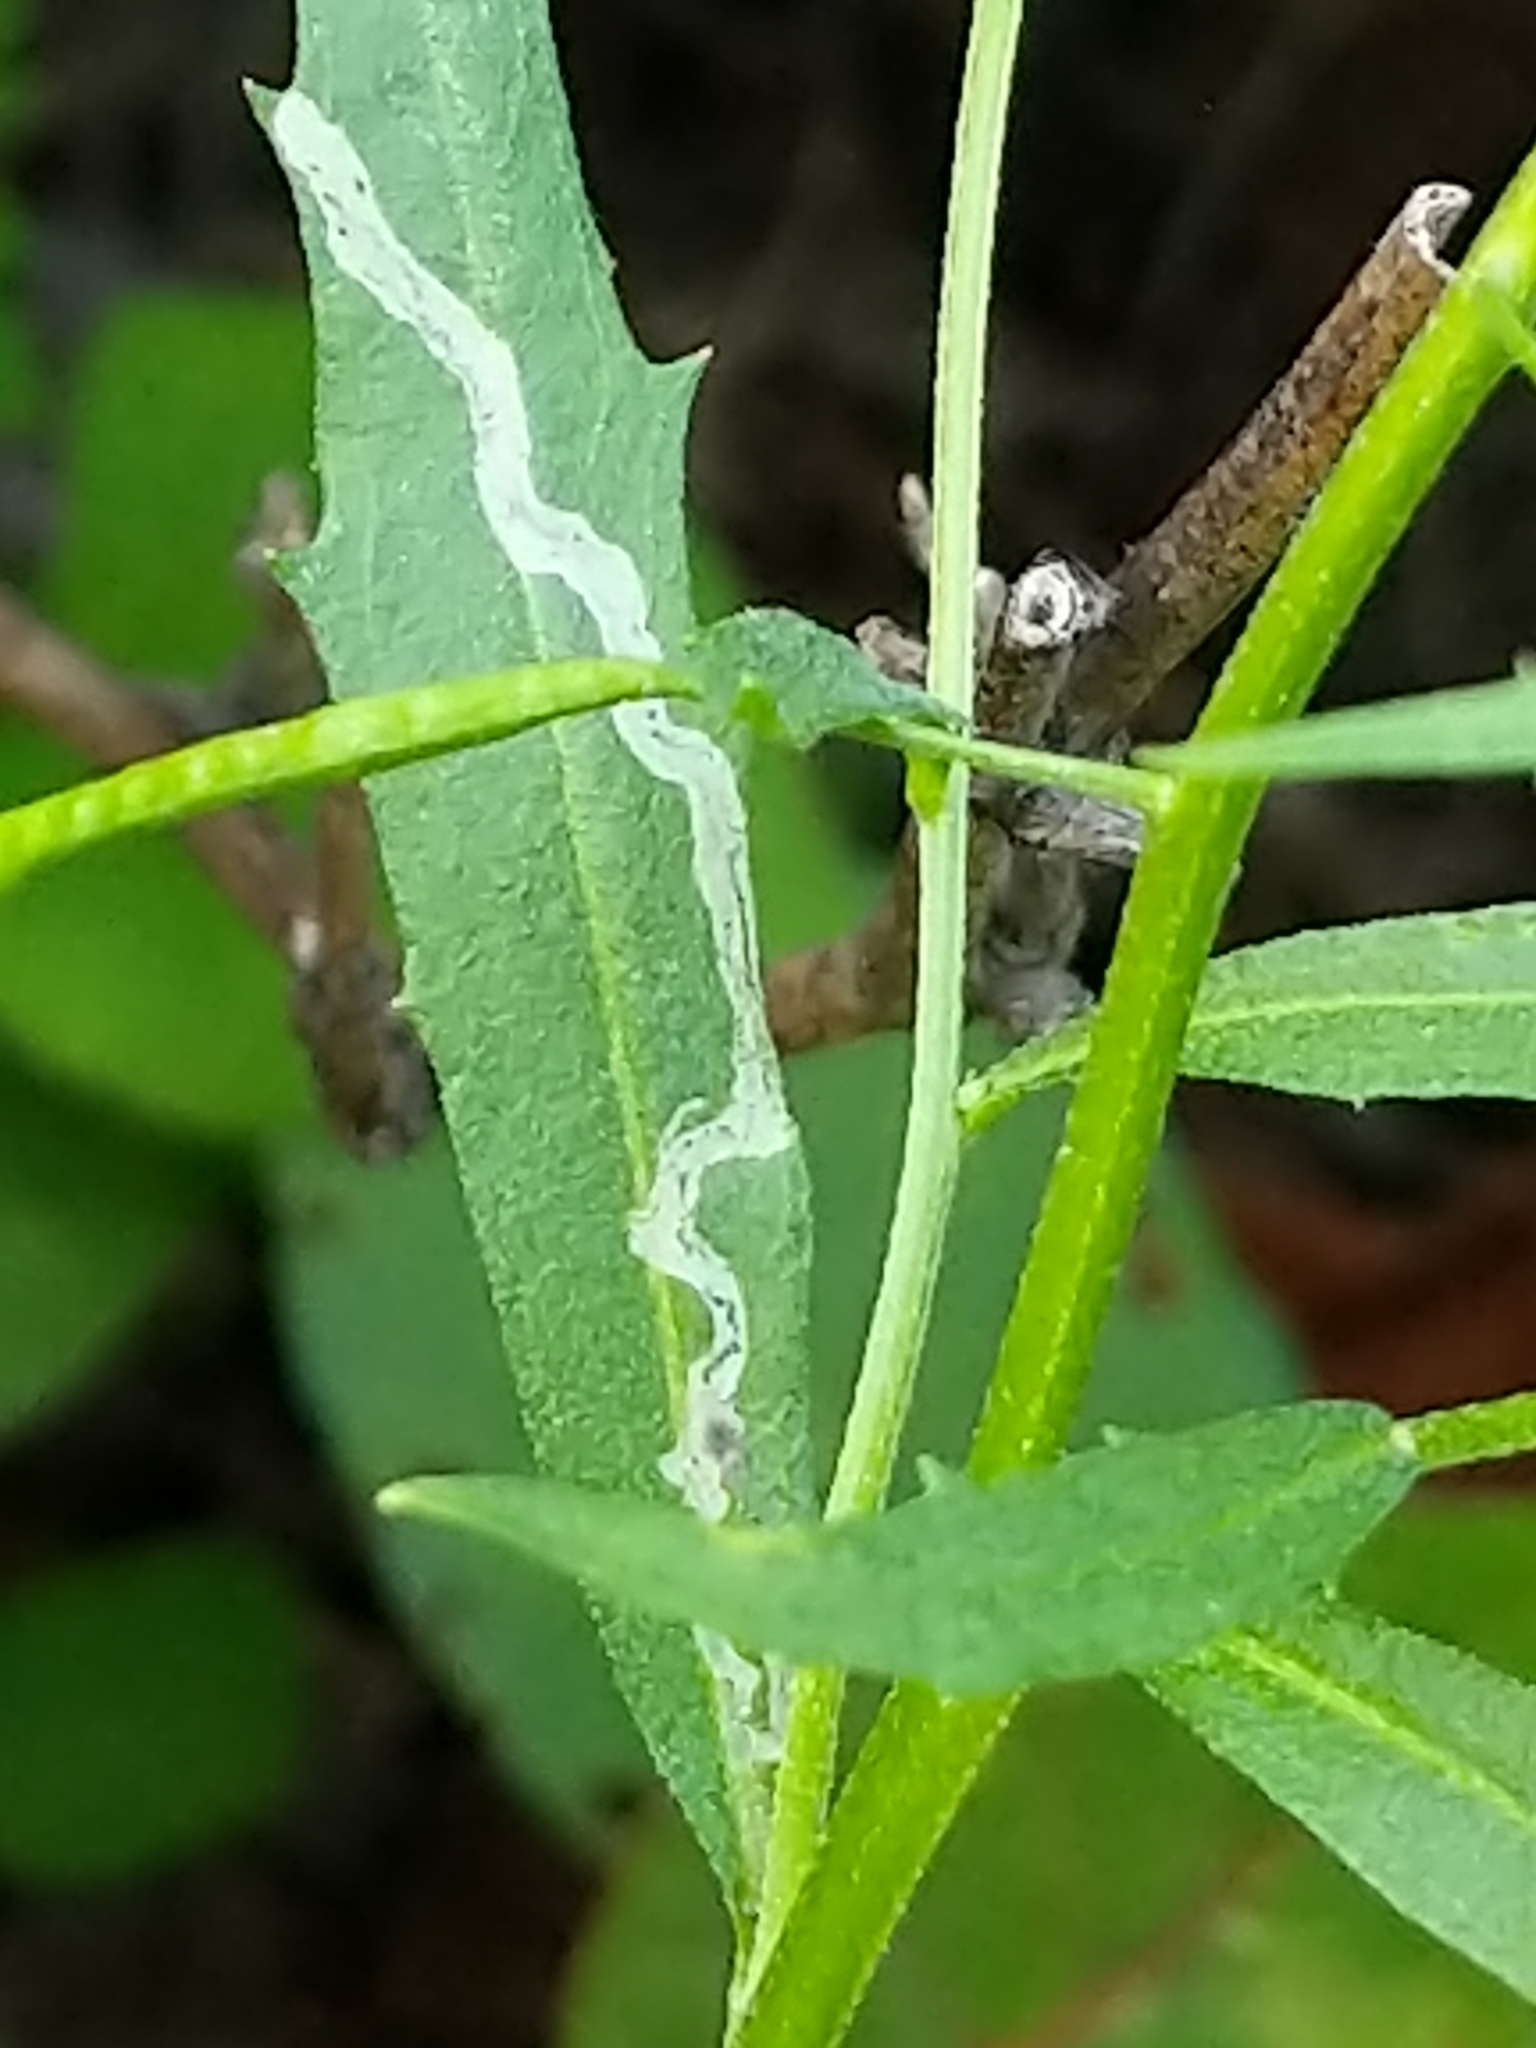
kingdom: Animalia
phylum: Arthropoda
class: Insecta
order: Diptera
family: Agromyzidae
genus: Liriomyza
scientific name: Liriomyza brassicae
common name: Serpentine leaf miner
